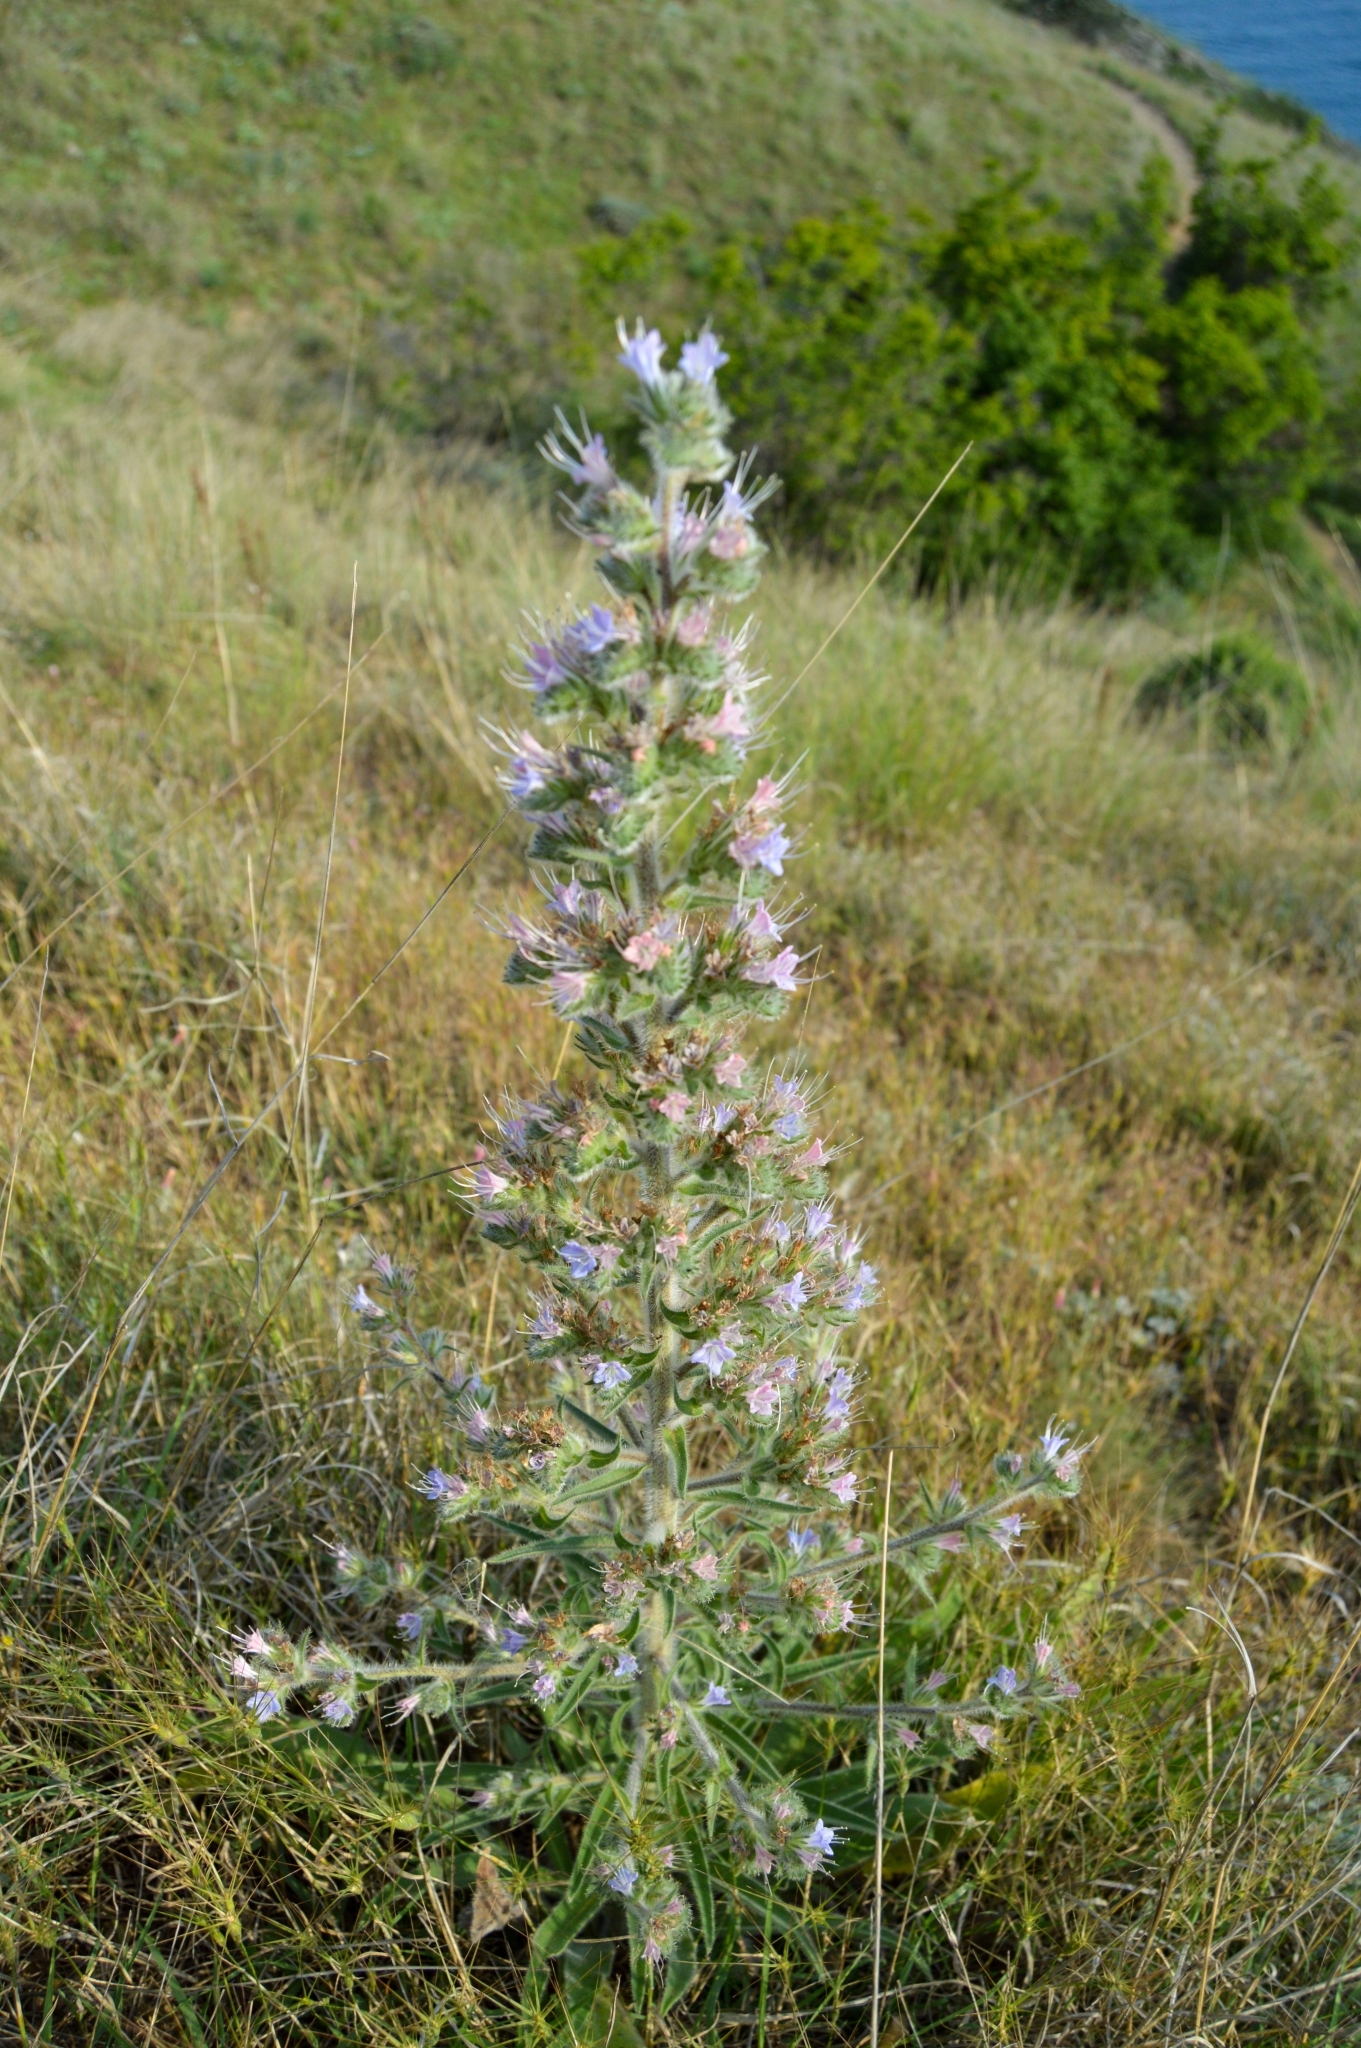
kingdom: Plantae
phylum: Tracheophyta
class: Magnoliopsida
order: Boraginales
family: Boraginaceae
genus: Echium
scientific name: Echium italicum
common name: Italian viper's bugloss
